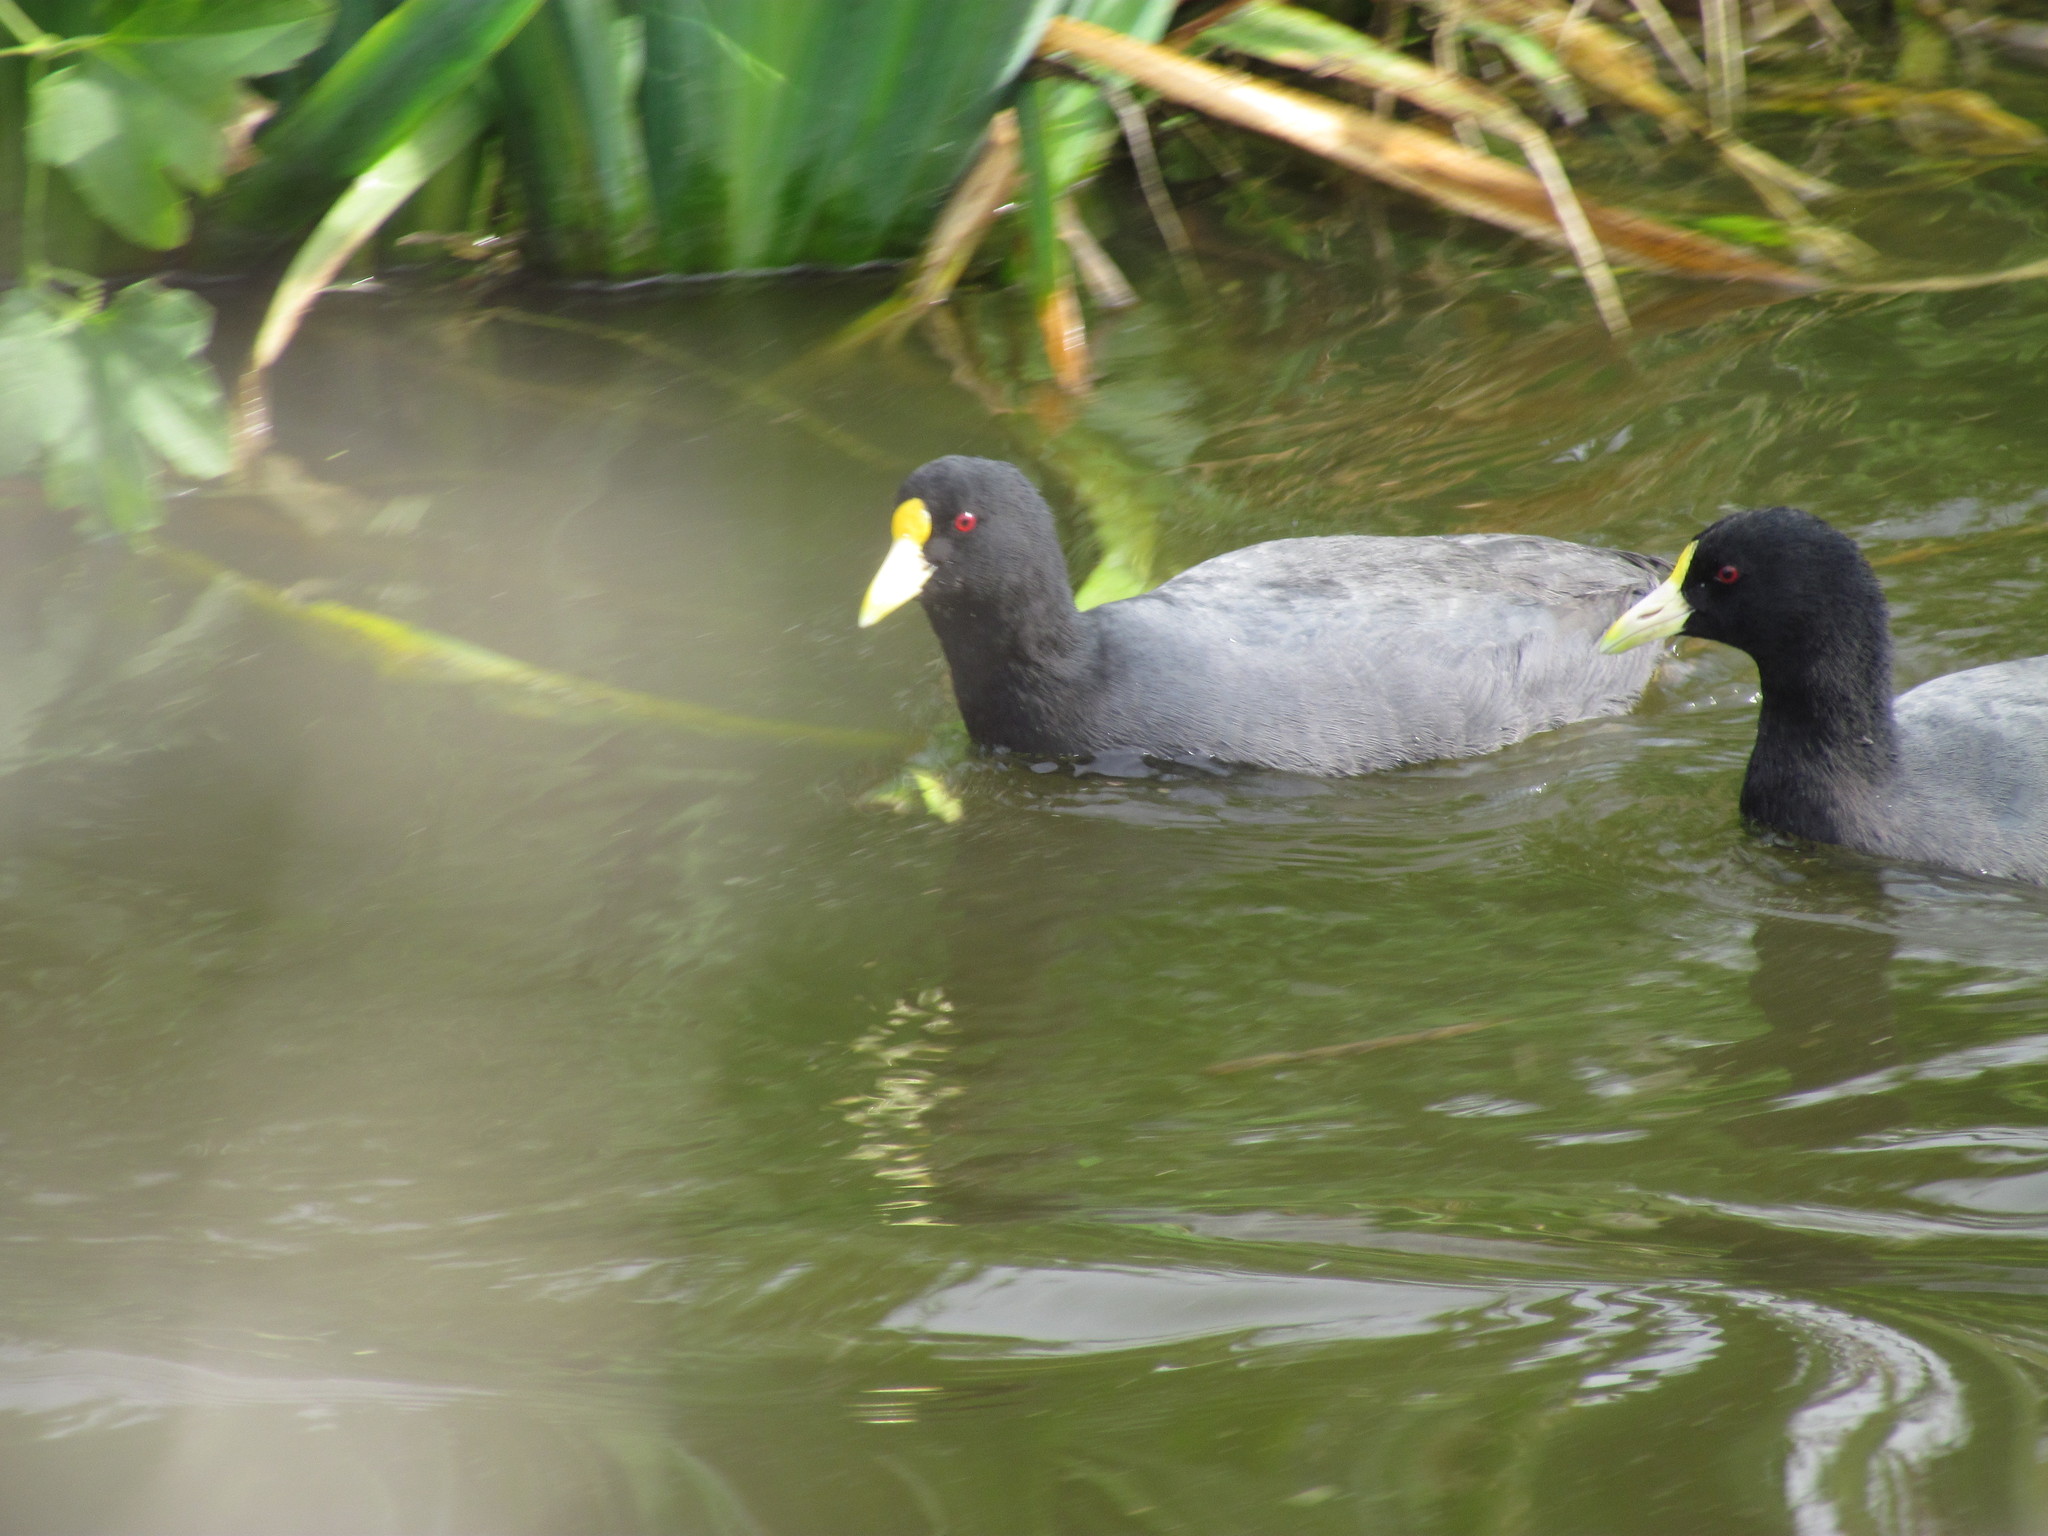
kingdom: Animalia
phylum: Chordata
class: Aves
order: Gruiformes
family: Rallidae
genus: Fulica
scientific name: Fulica leucoptera
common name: White-winged coot
